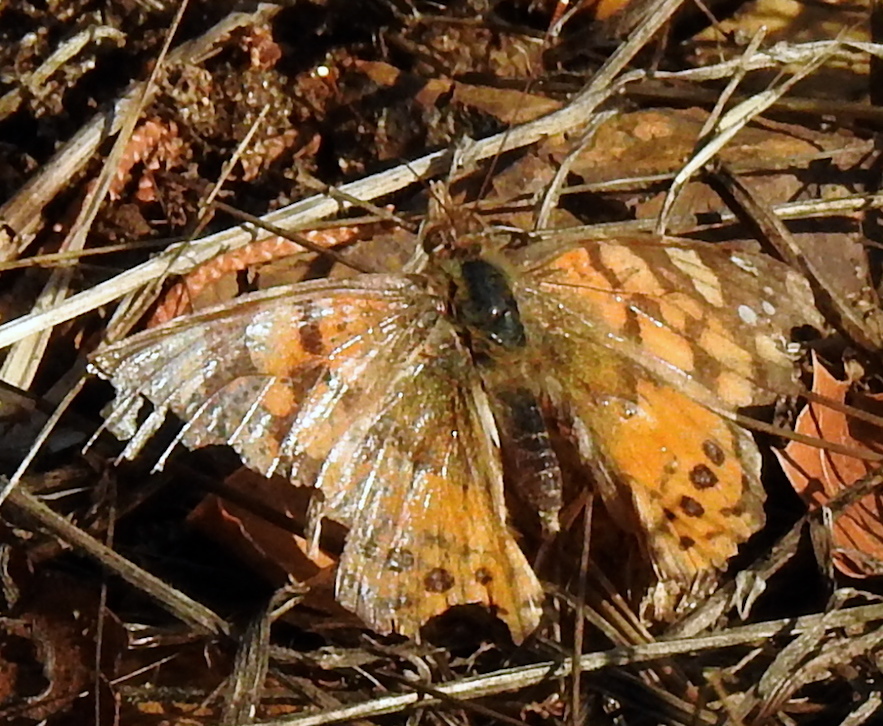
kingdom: Animalia
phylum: Arthropoda
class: Insecta
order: Lepidoptera
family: Nymphalidae
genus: Vanessa
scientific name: Vanessa annabella
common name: West coast lady
